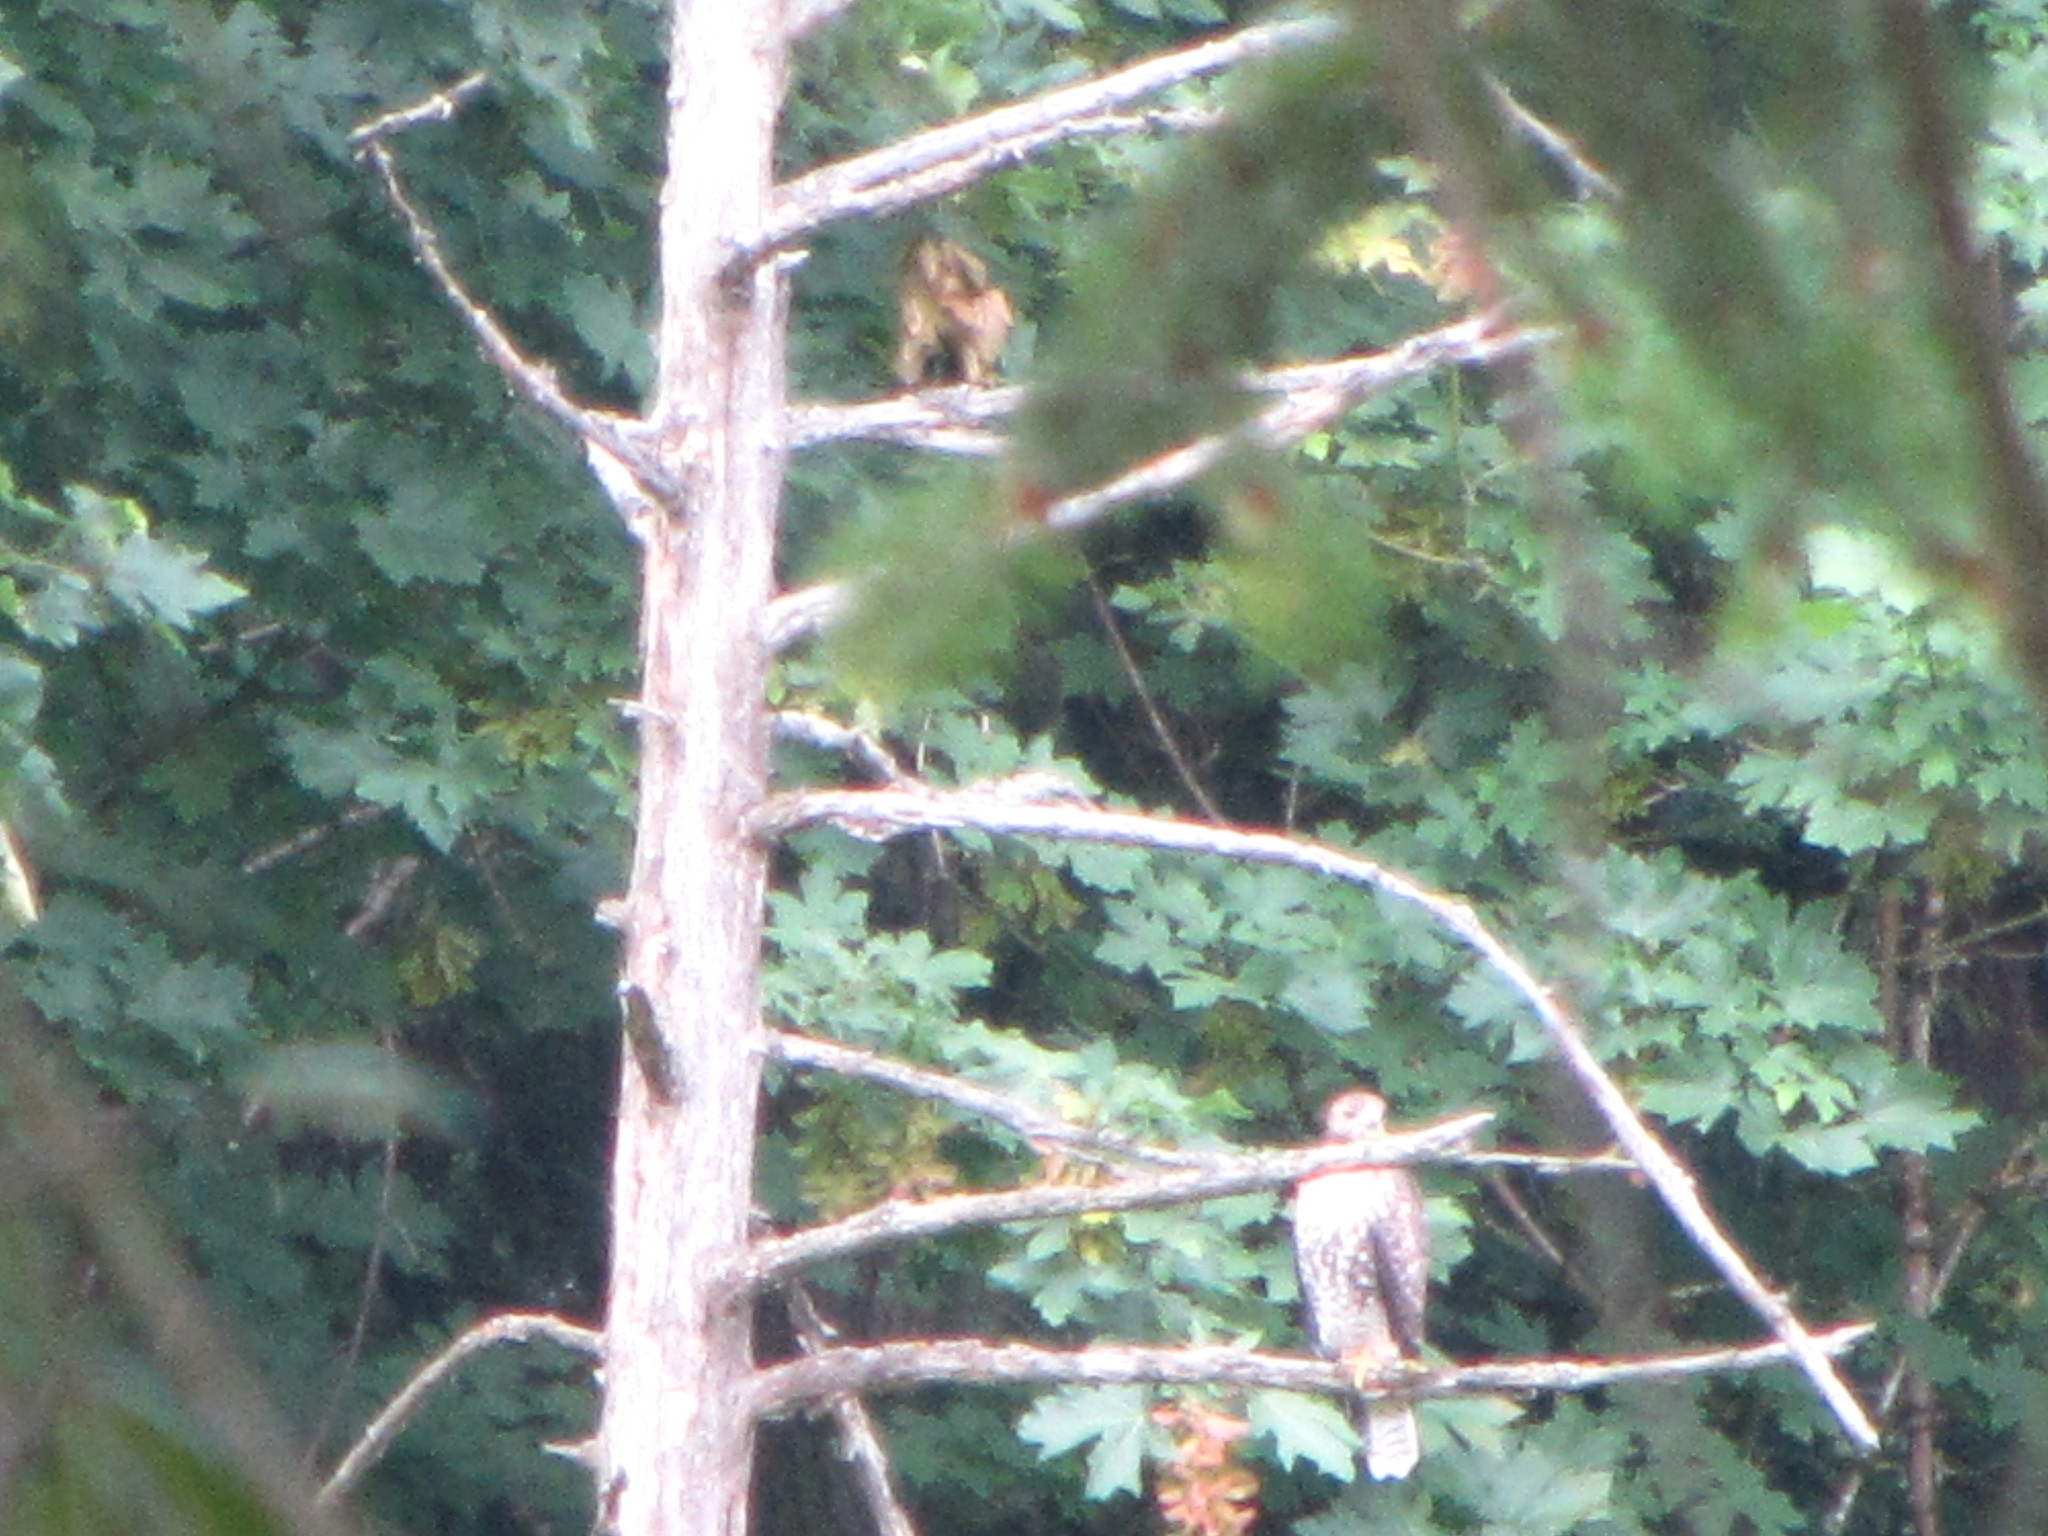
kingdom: Animalia
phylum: Chordata
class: Aves
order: Accipitriformes
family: Accipitridae
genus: Buteo
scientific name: Buteo jamaicensis
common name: Red-tailed hawk
